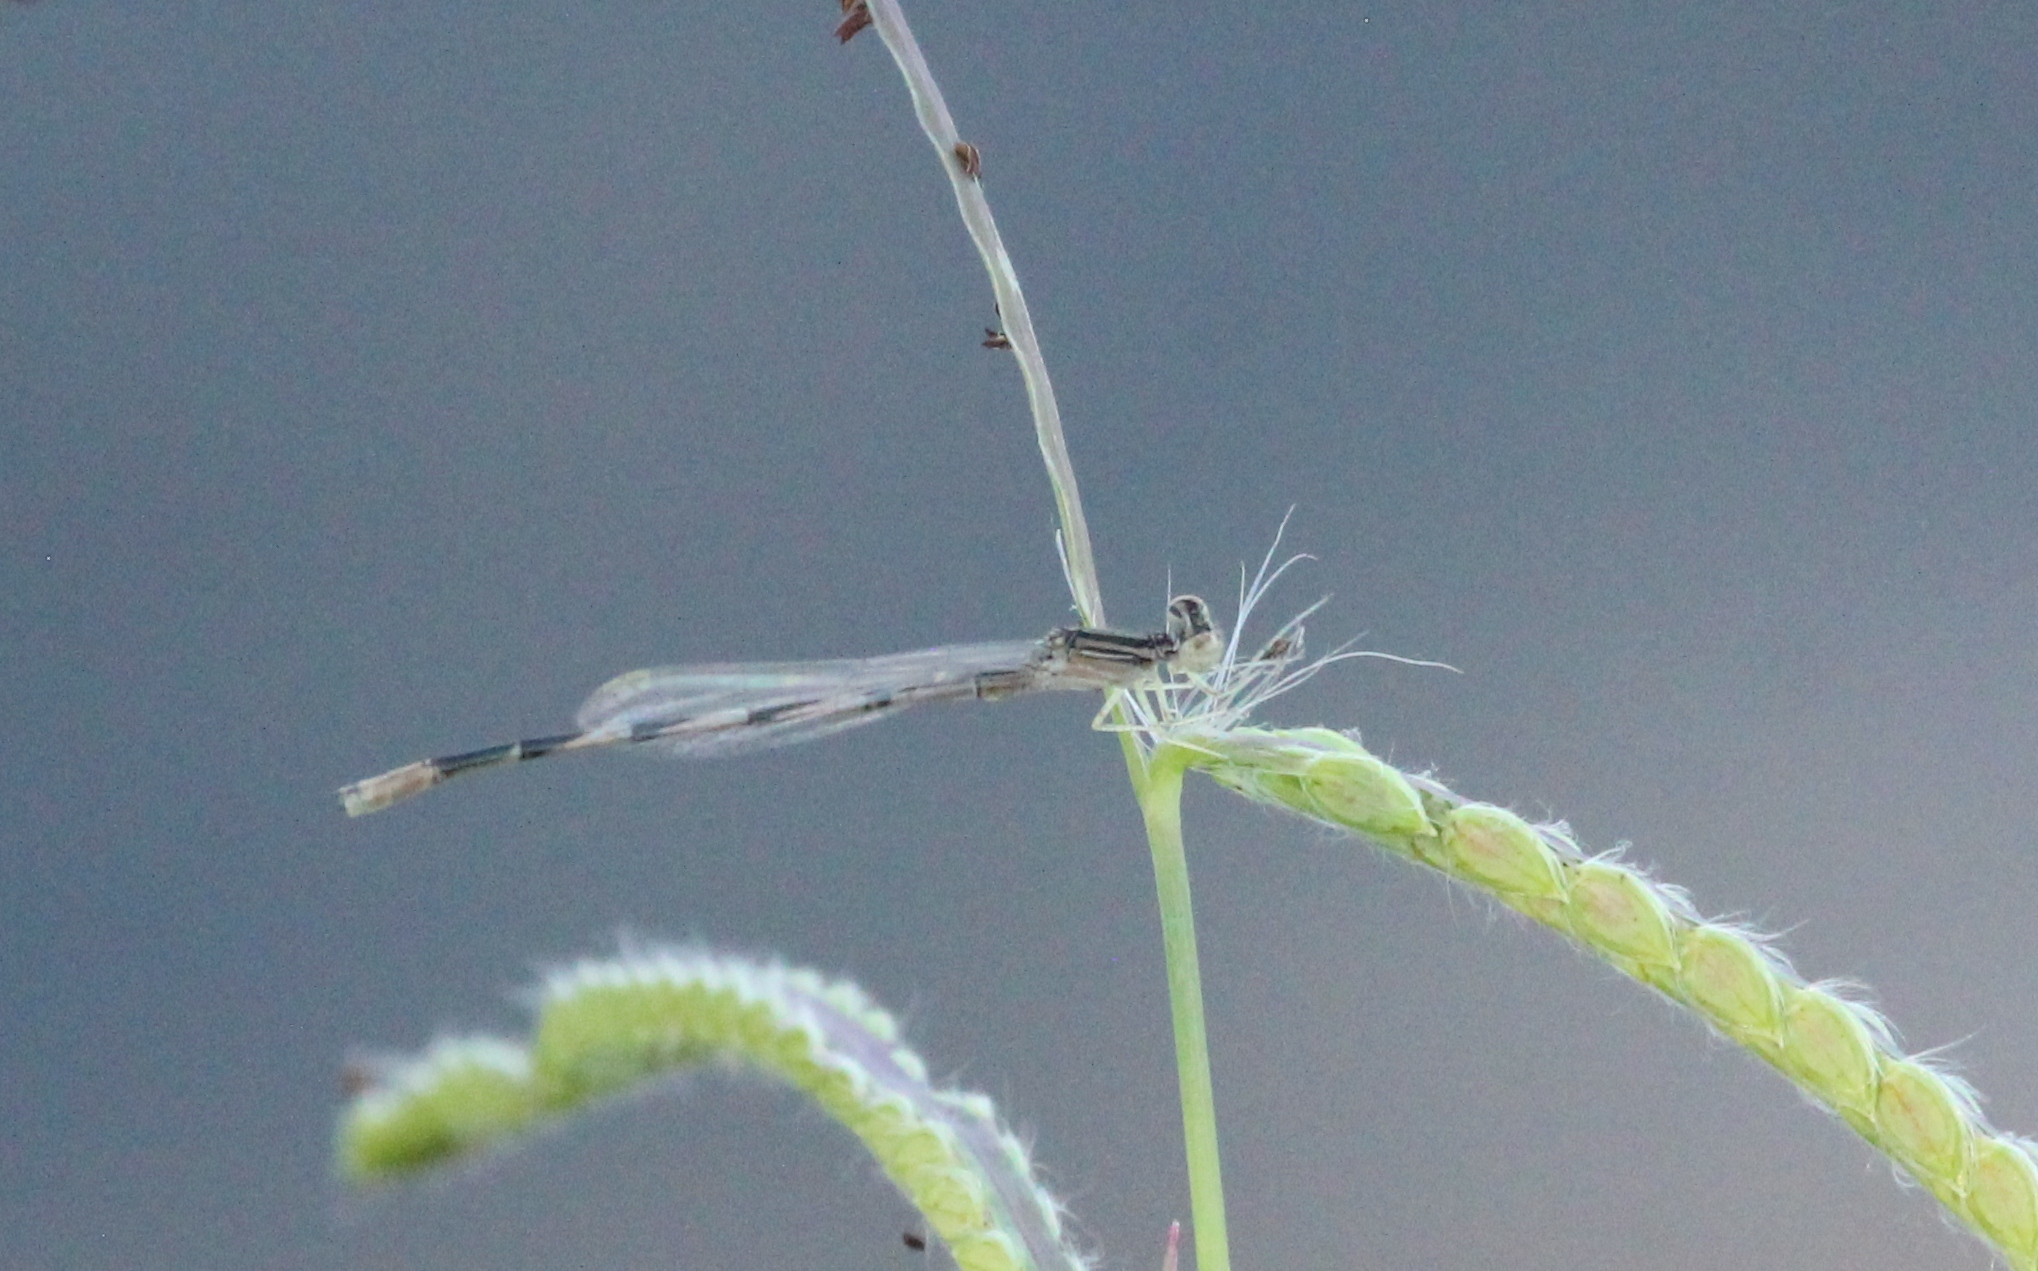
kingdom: Animalia
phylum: Arthropoda
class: Insecta
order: Odonata
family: Coenagrionidae
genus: Enallagma
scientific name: Enallagma basidens
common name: Double-striped bluet
